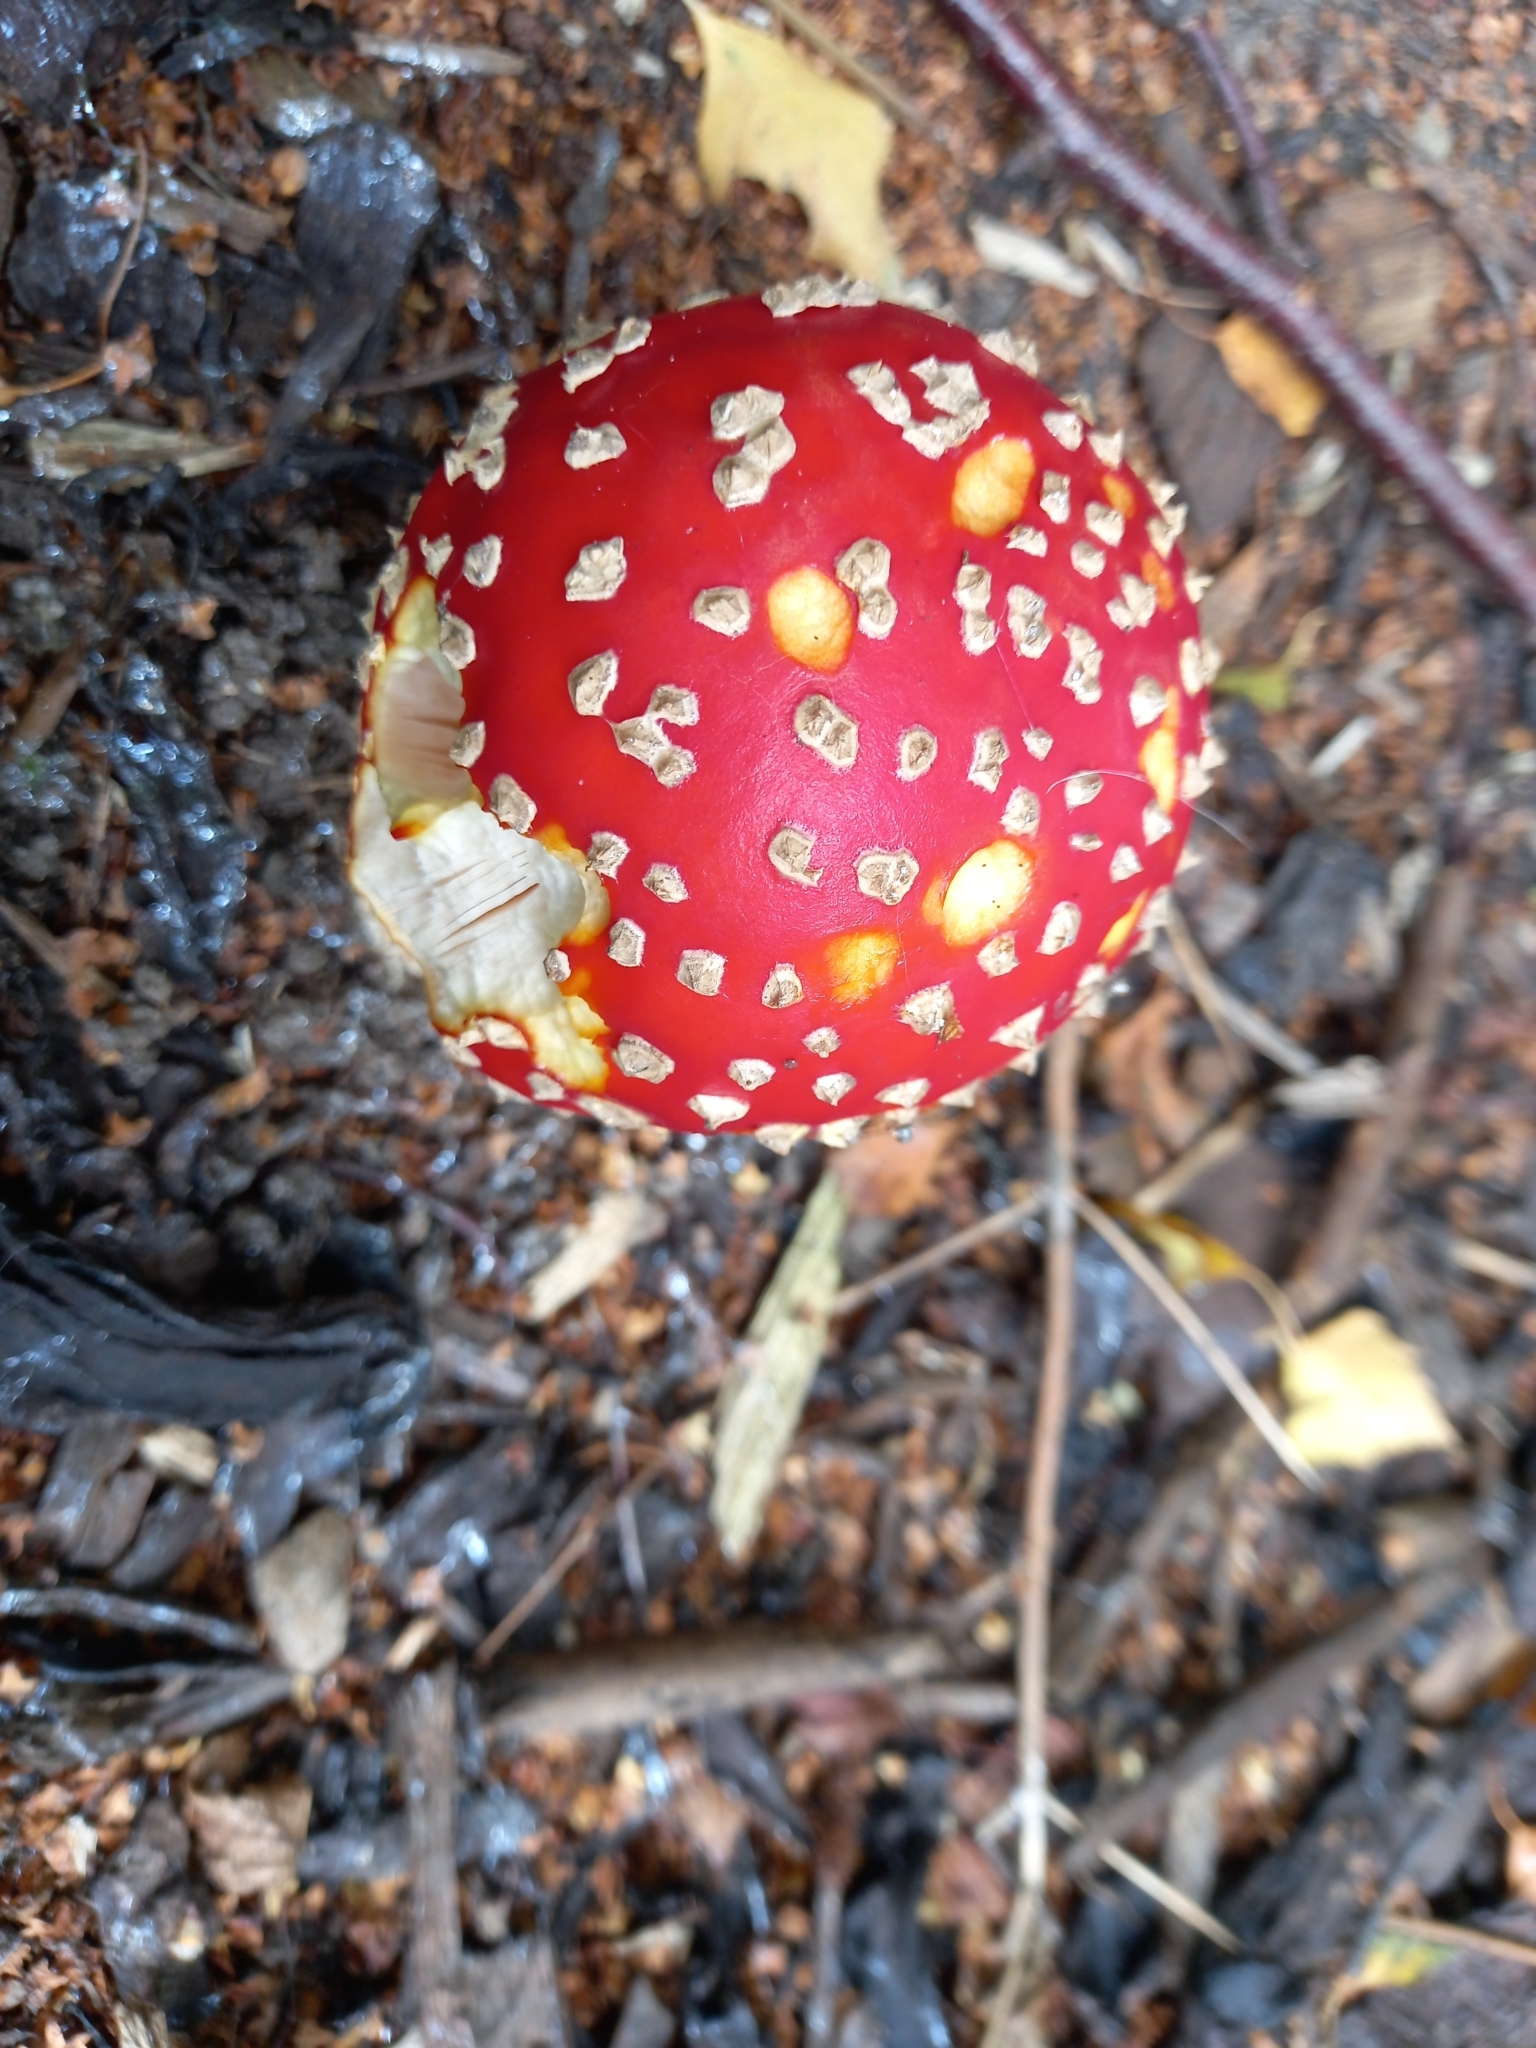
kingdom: Fungi
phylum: Basidiomycota
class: Agaricomycetes
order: Agaricales
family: Amanitaceae
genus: Amanita
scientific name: Amanita muscaria
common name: Fly agaric
